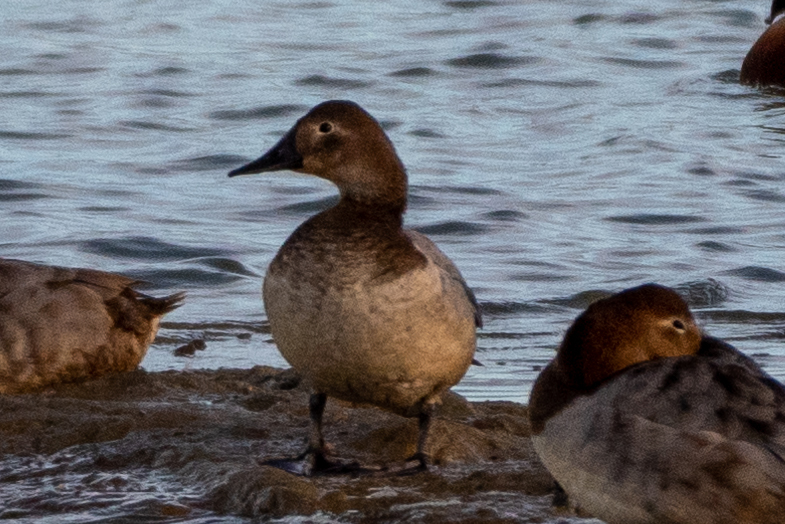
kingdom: Animalia
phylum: Chordata
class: Aves
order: Anseriformes
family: Anatidae
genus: Aythya
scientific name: Aythya valisineria
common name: Canvasback
